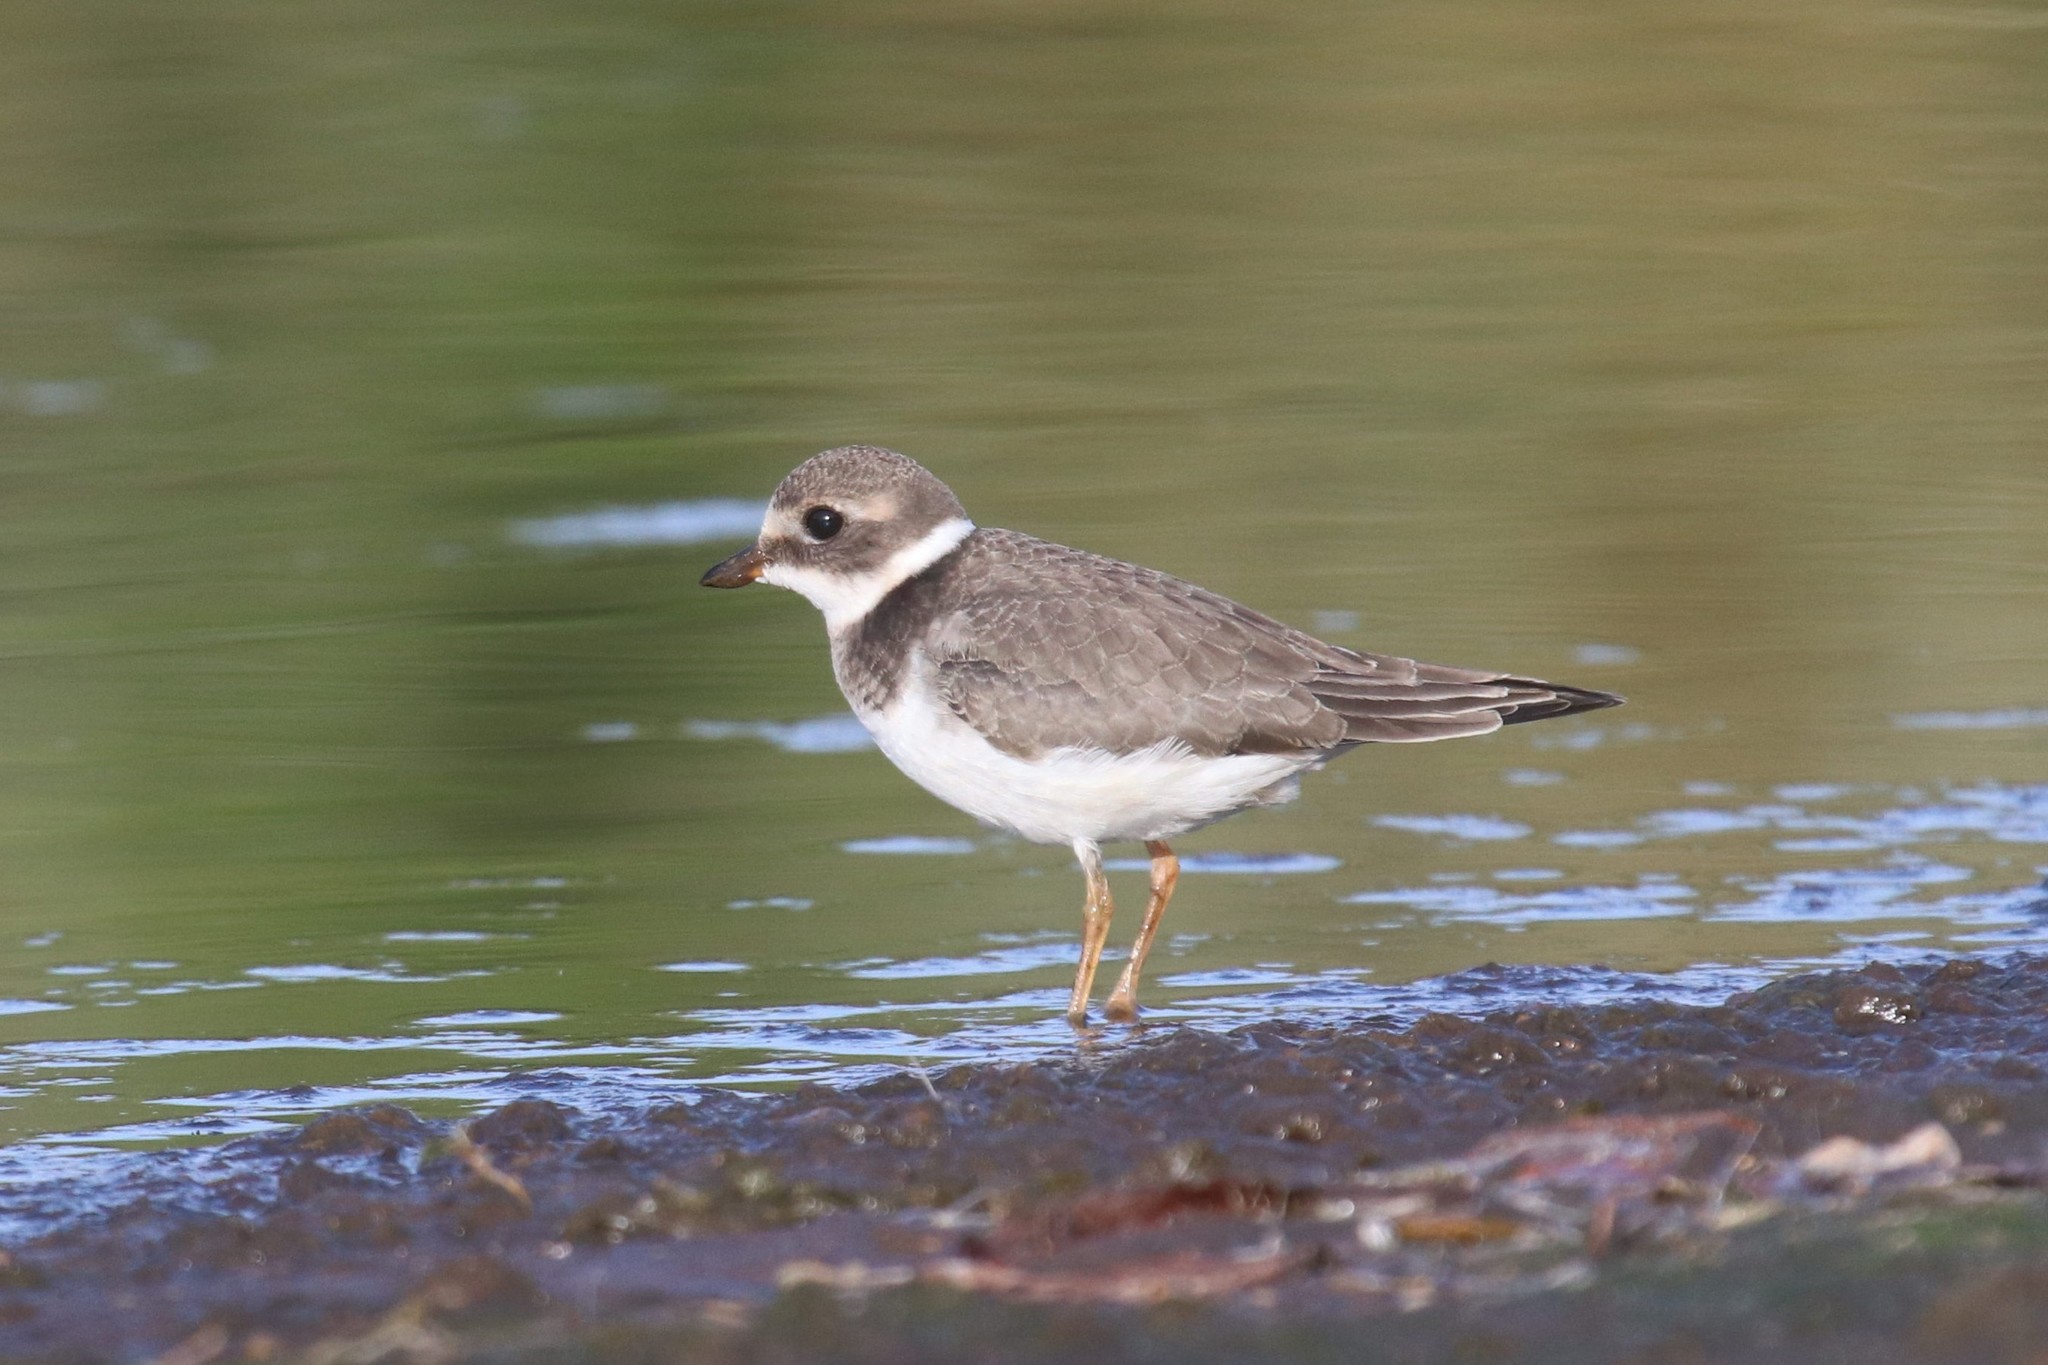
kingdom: Animalia
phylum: Chordata
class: Aves
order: Charadriiformes
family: Charadriidae
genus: Charadrius
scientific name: Charadrius hiaticula
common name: Common ringed plover
